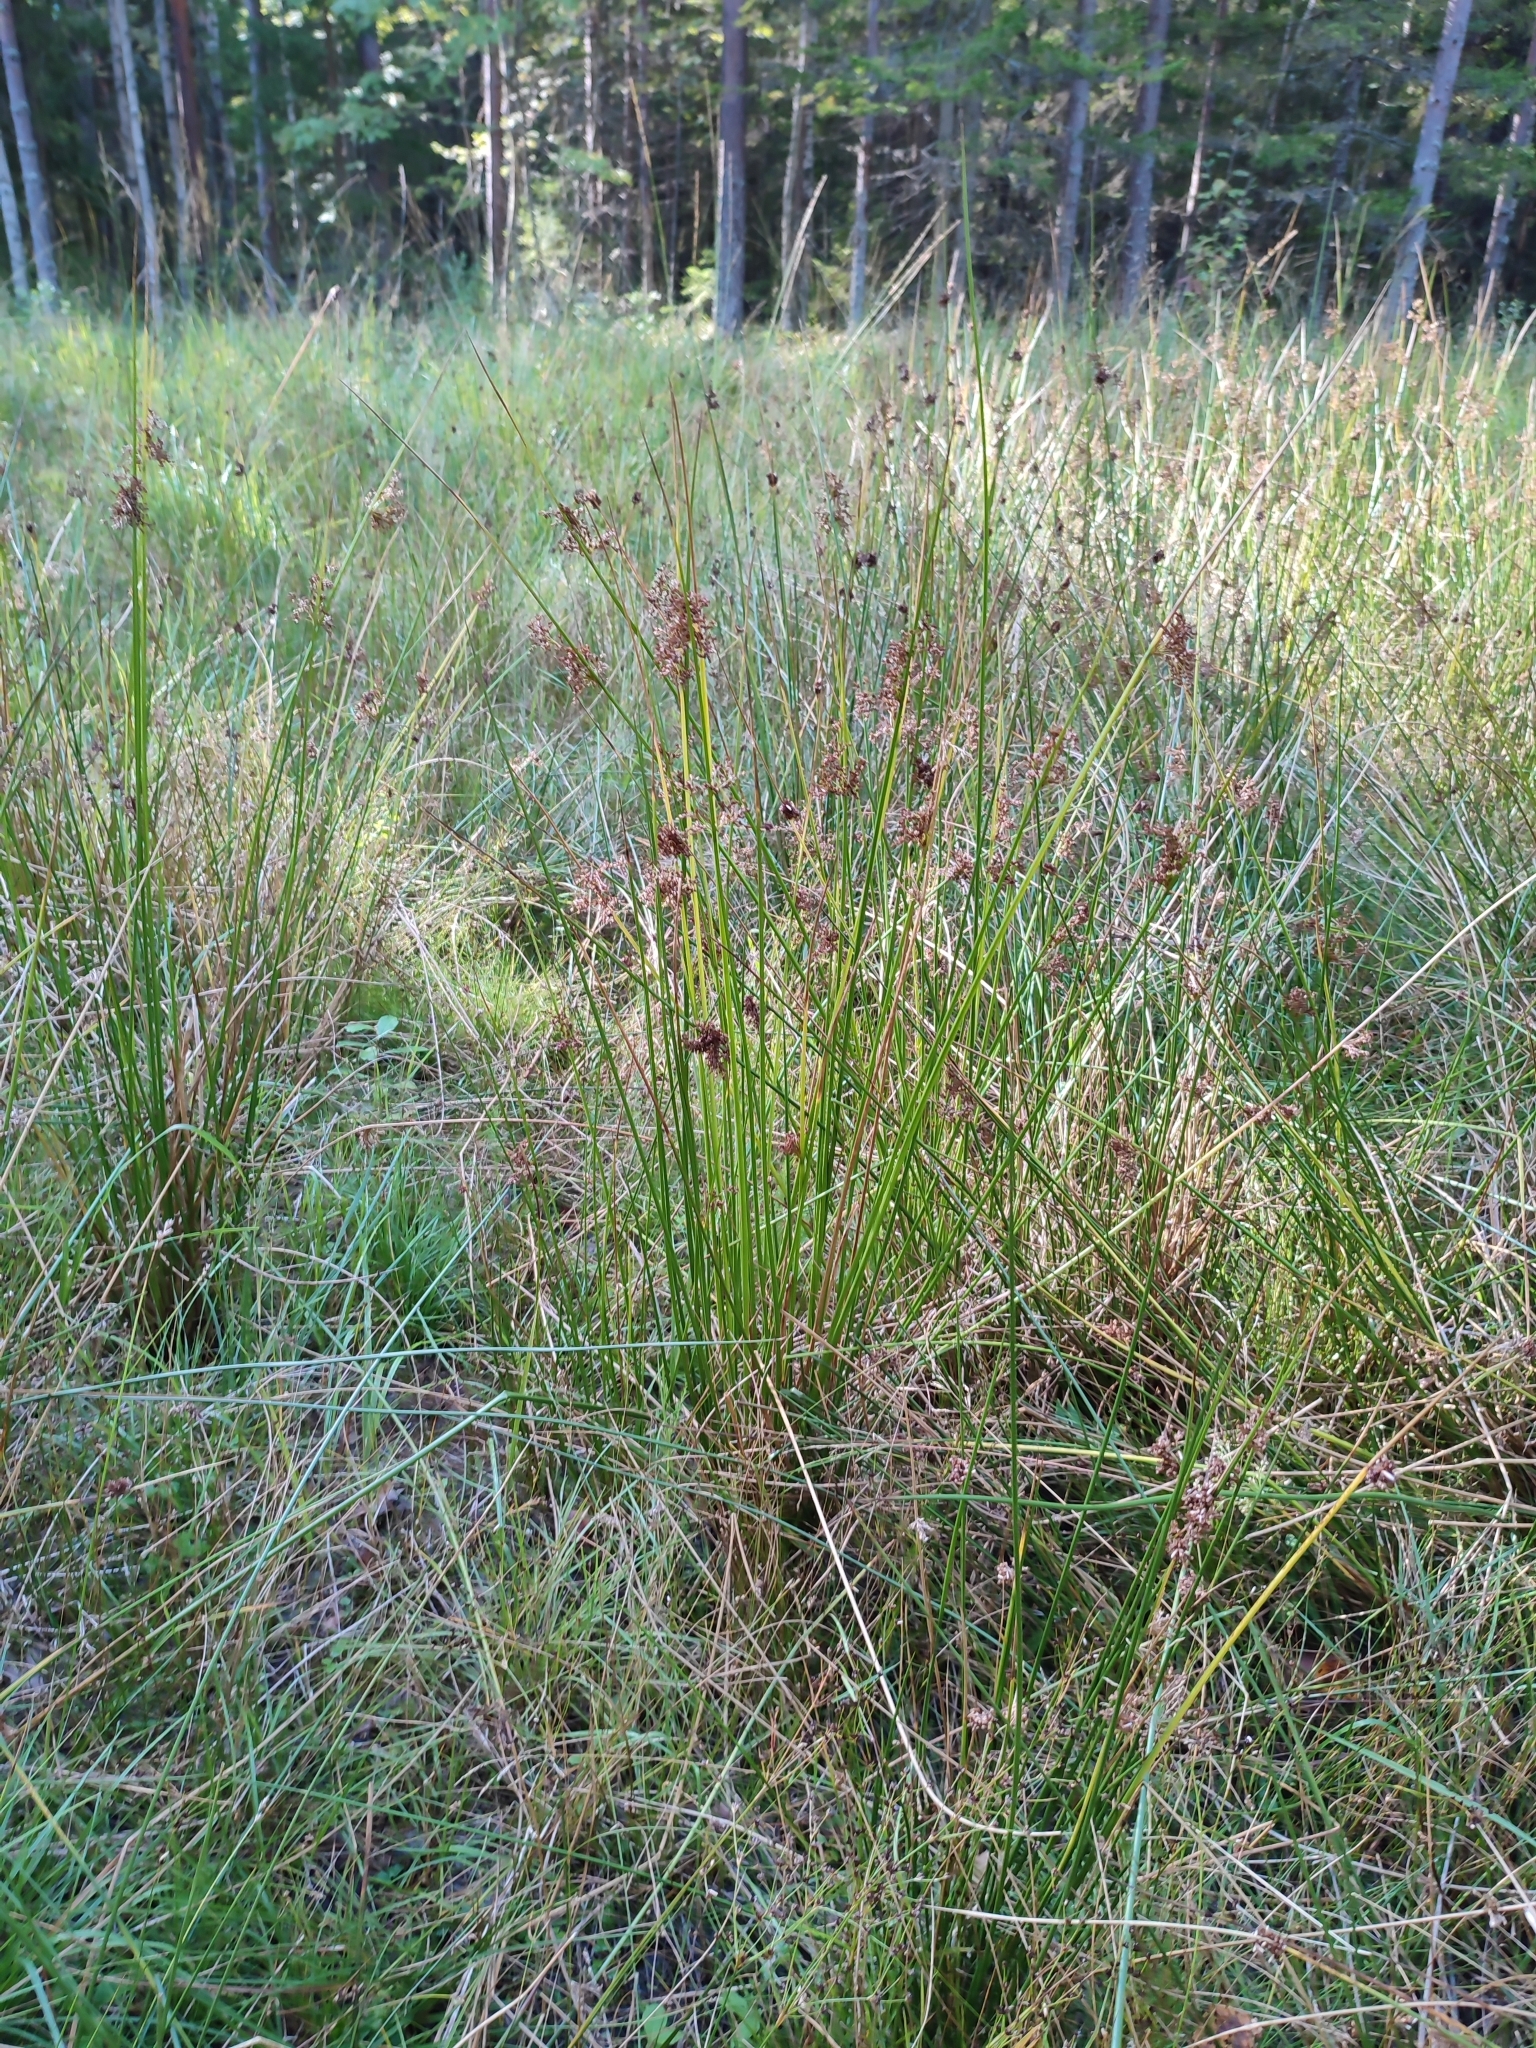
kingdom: Plantae
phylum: Tracheophyta
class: Liliopsida
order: Poales
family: Juncaceae
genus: Juncus
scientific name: Juncus effusus
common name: Soft rush
